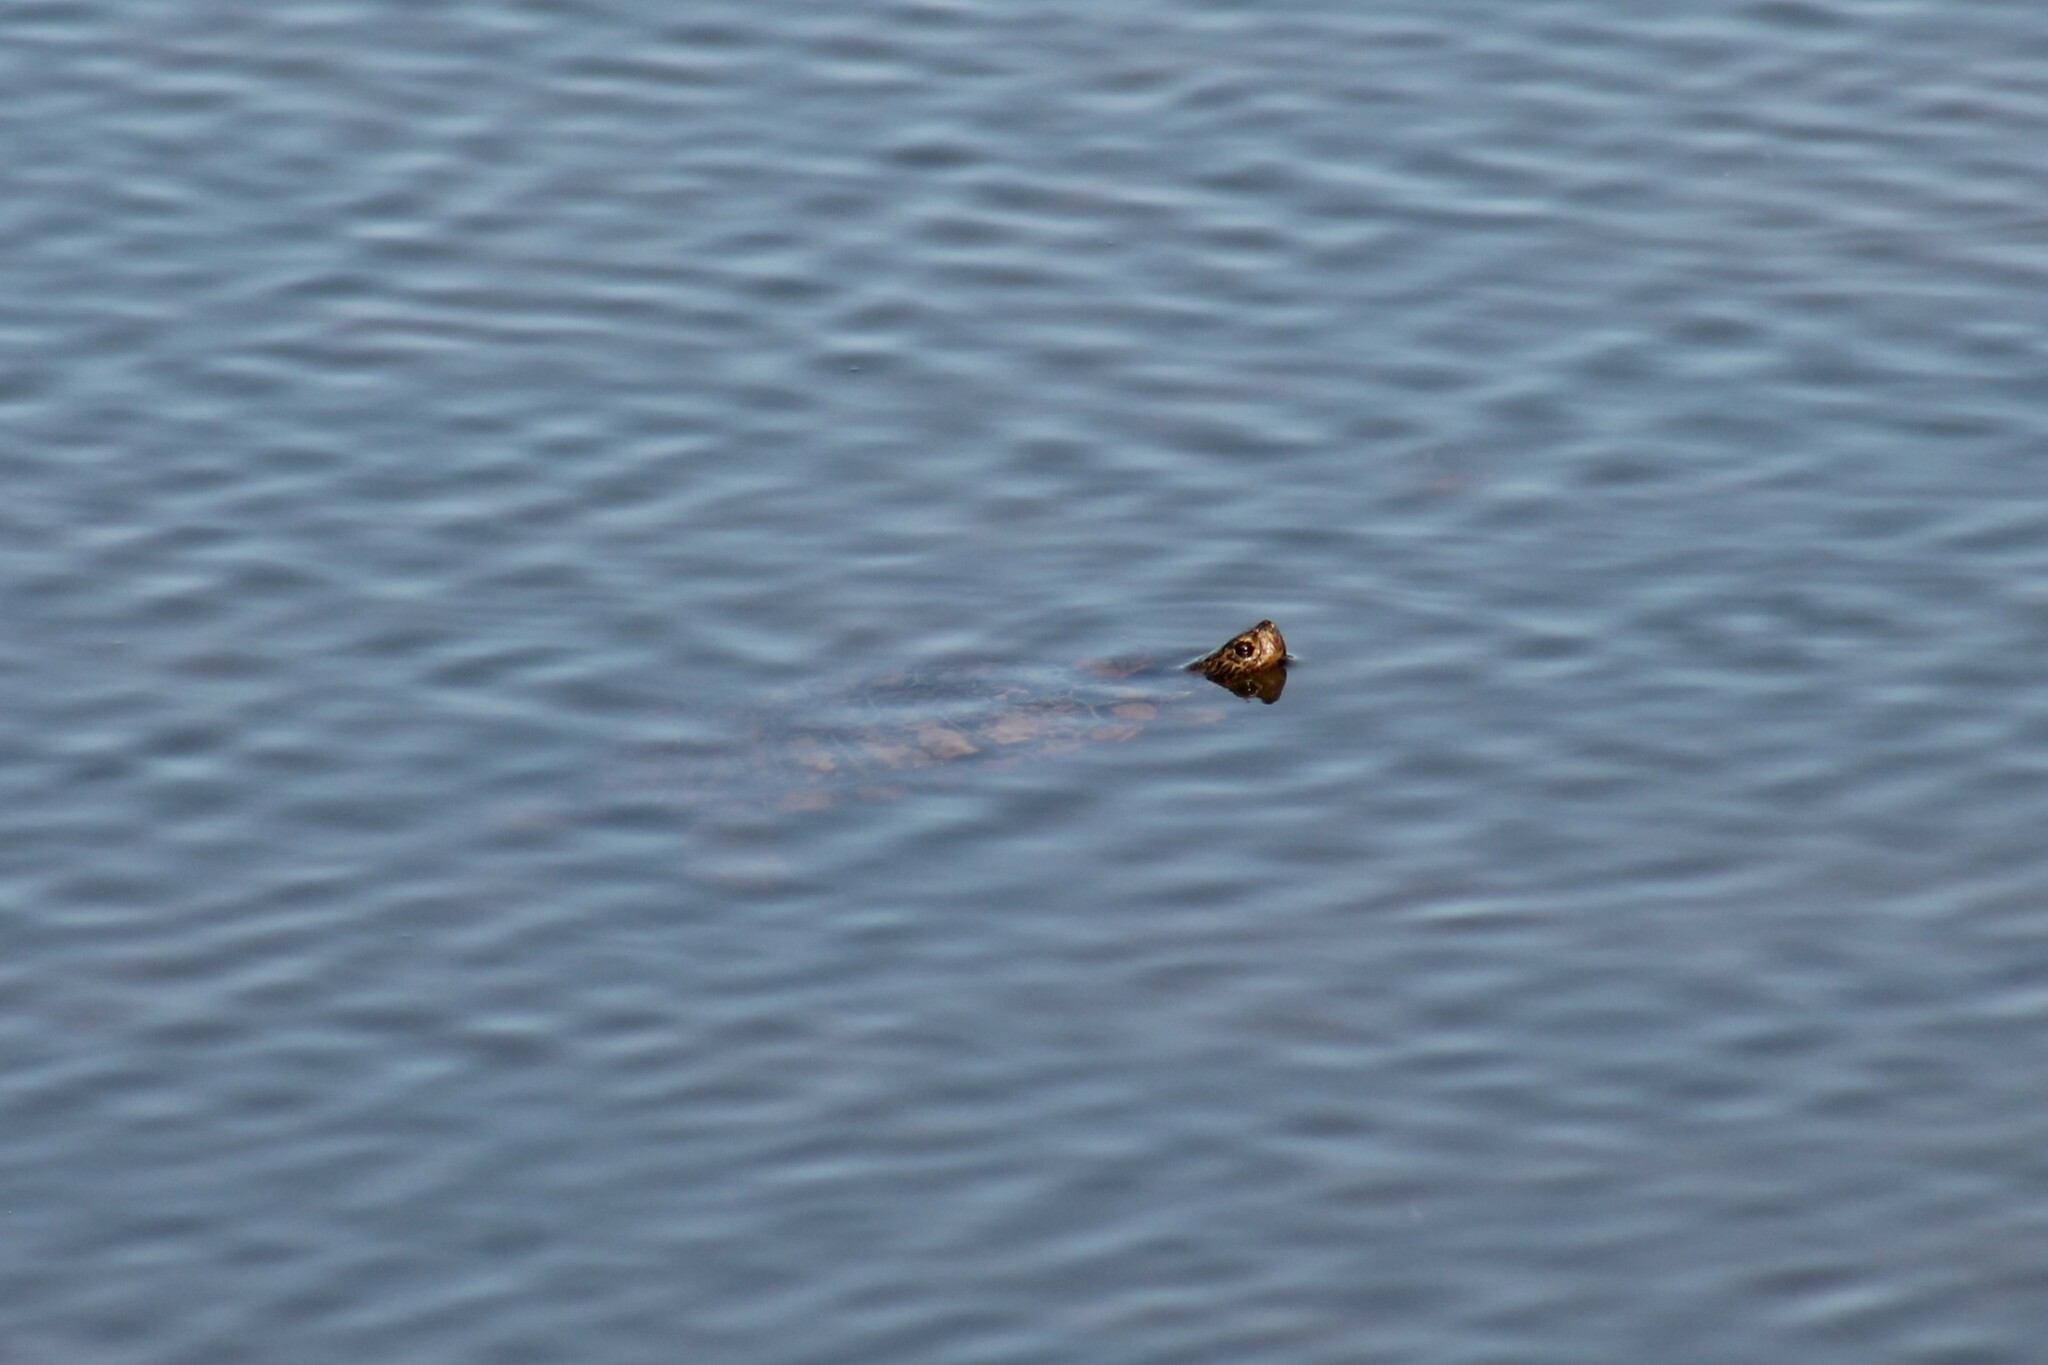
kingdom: Animalia
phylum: Chordata
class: Testudines
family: Emydidae
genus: Trachemys
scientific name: Trachemys scripta
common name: Slider
